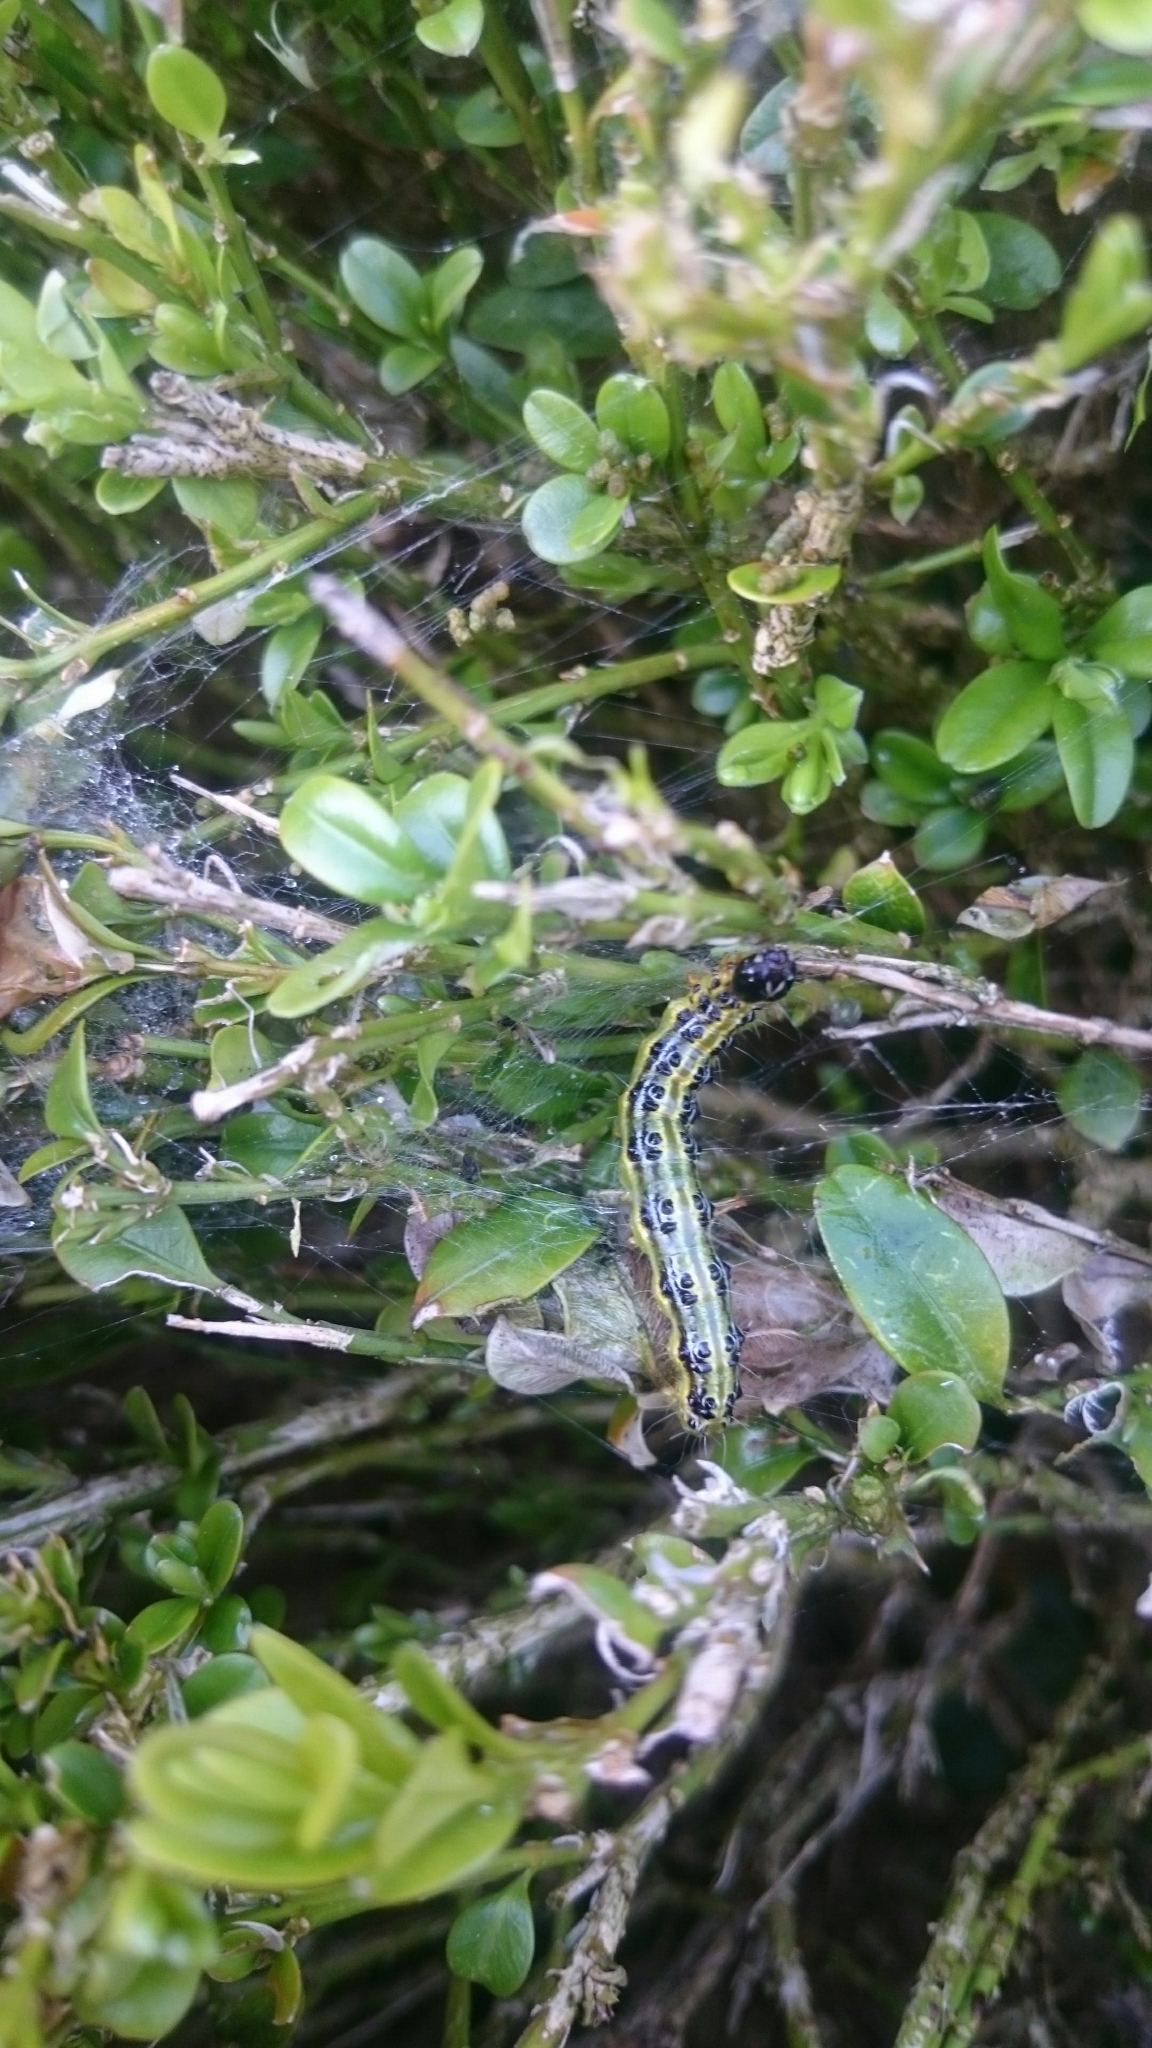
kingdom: Animalia
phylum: Arthropoda
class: Insecta
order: Lepidoptera
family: Crambidae
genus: Cydalima
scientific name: Cydalima perspectalis
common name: Box tree moth
